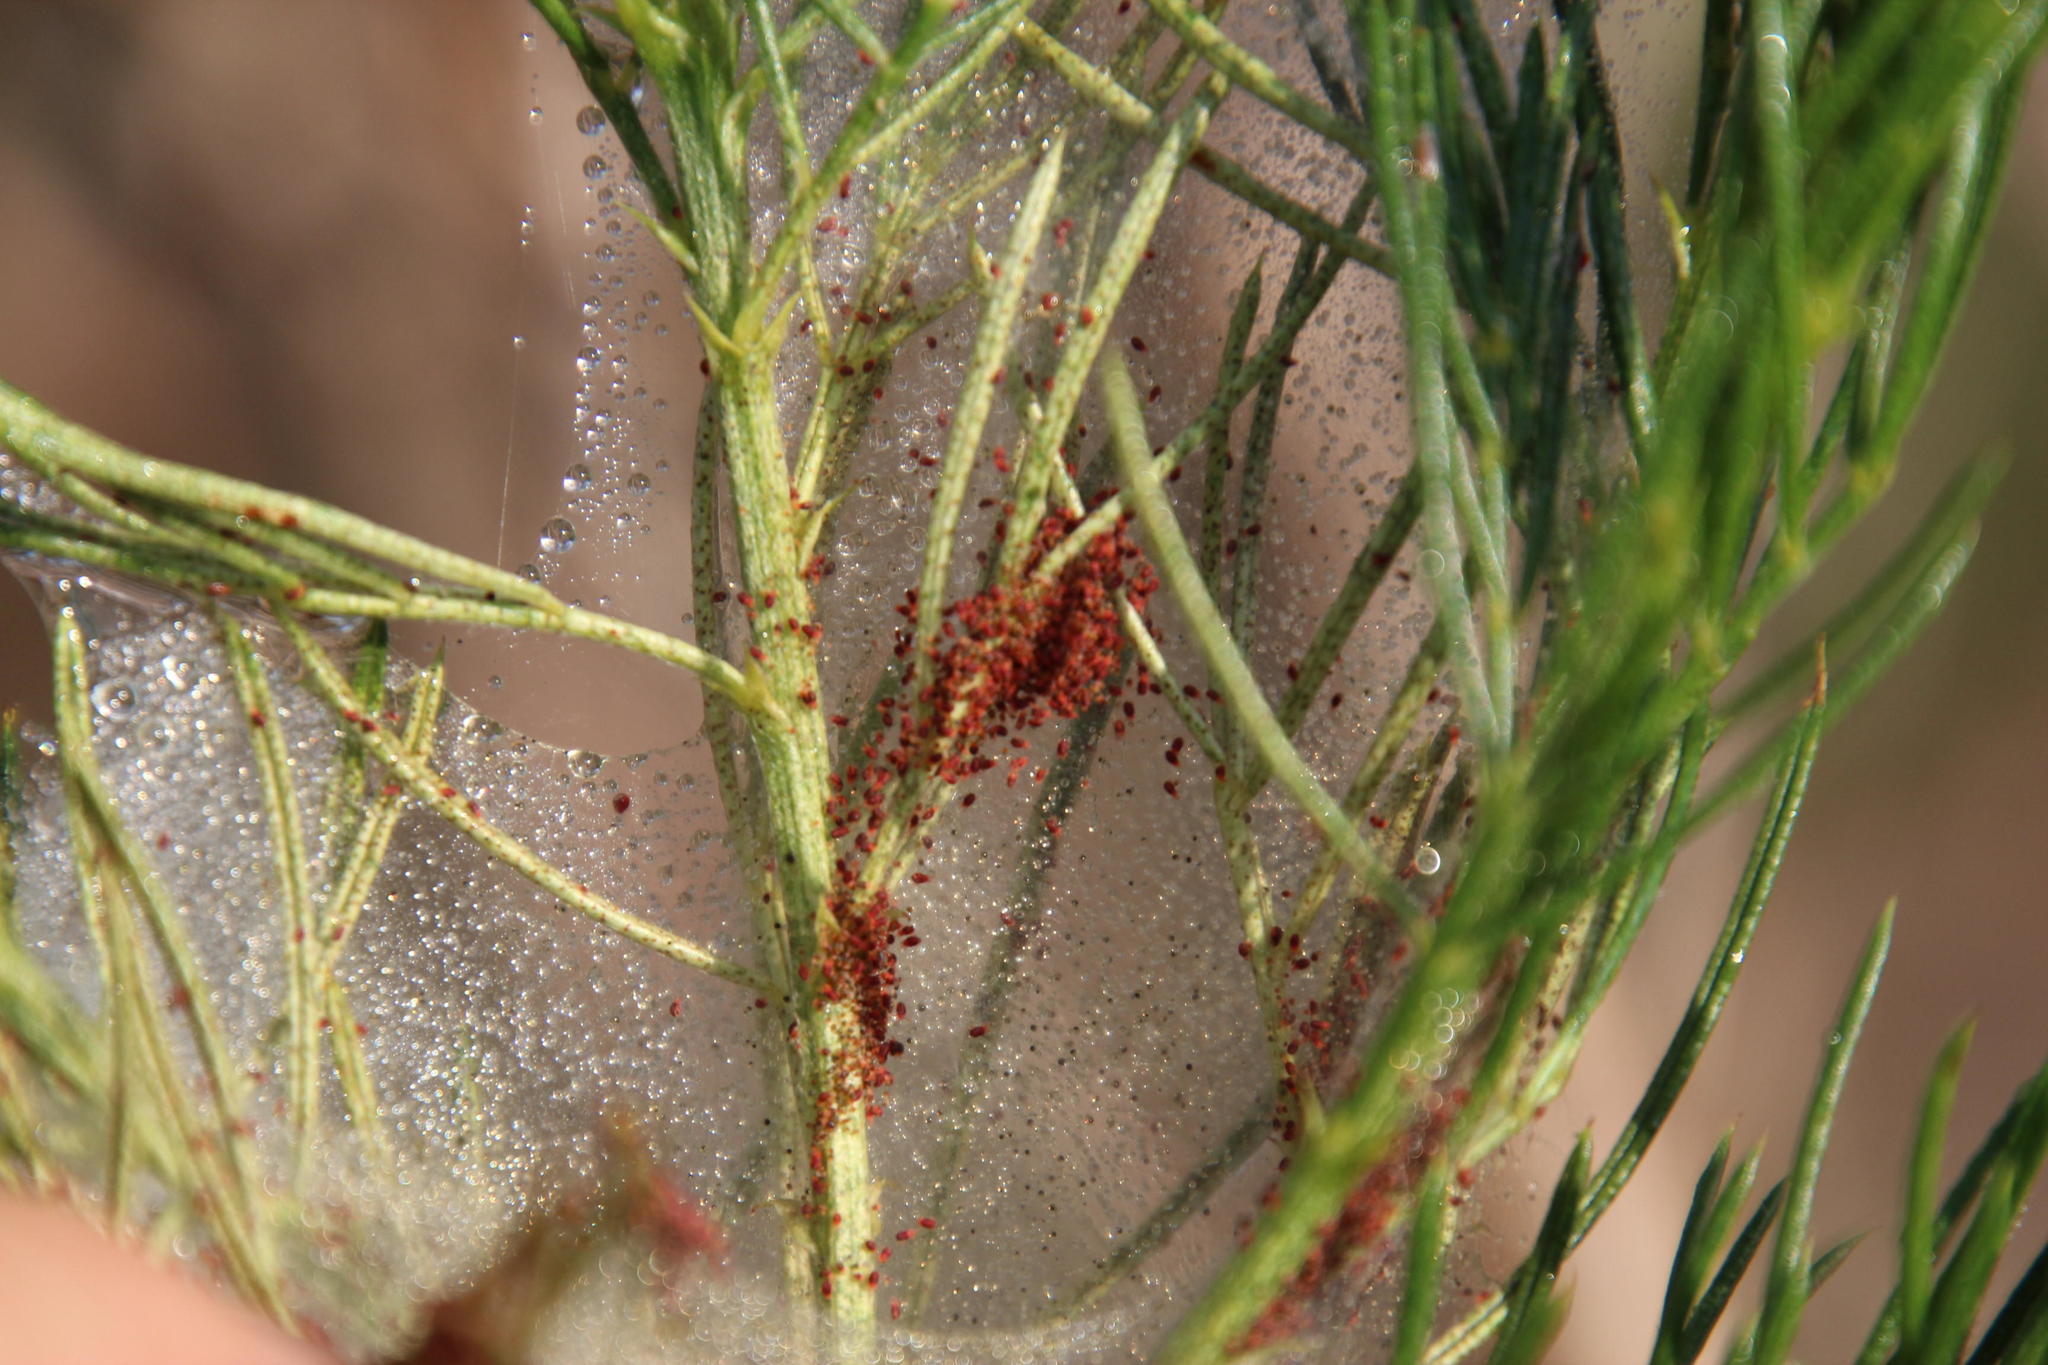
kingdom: Plantae
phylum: Tracheophyta
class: Magnoliopsida
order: Fabales
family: Fabaceae
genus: Psoralea
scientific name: Psoralea pinnata
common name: African scurfpea
